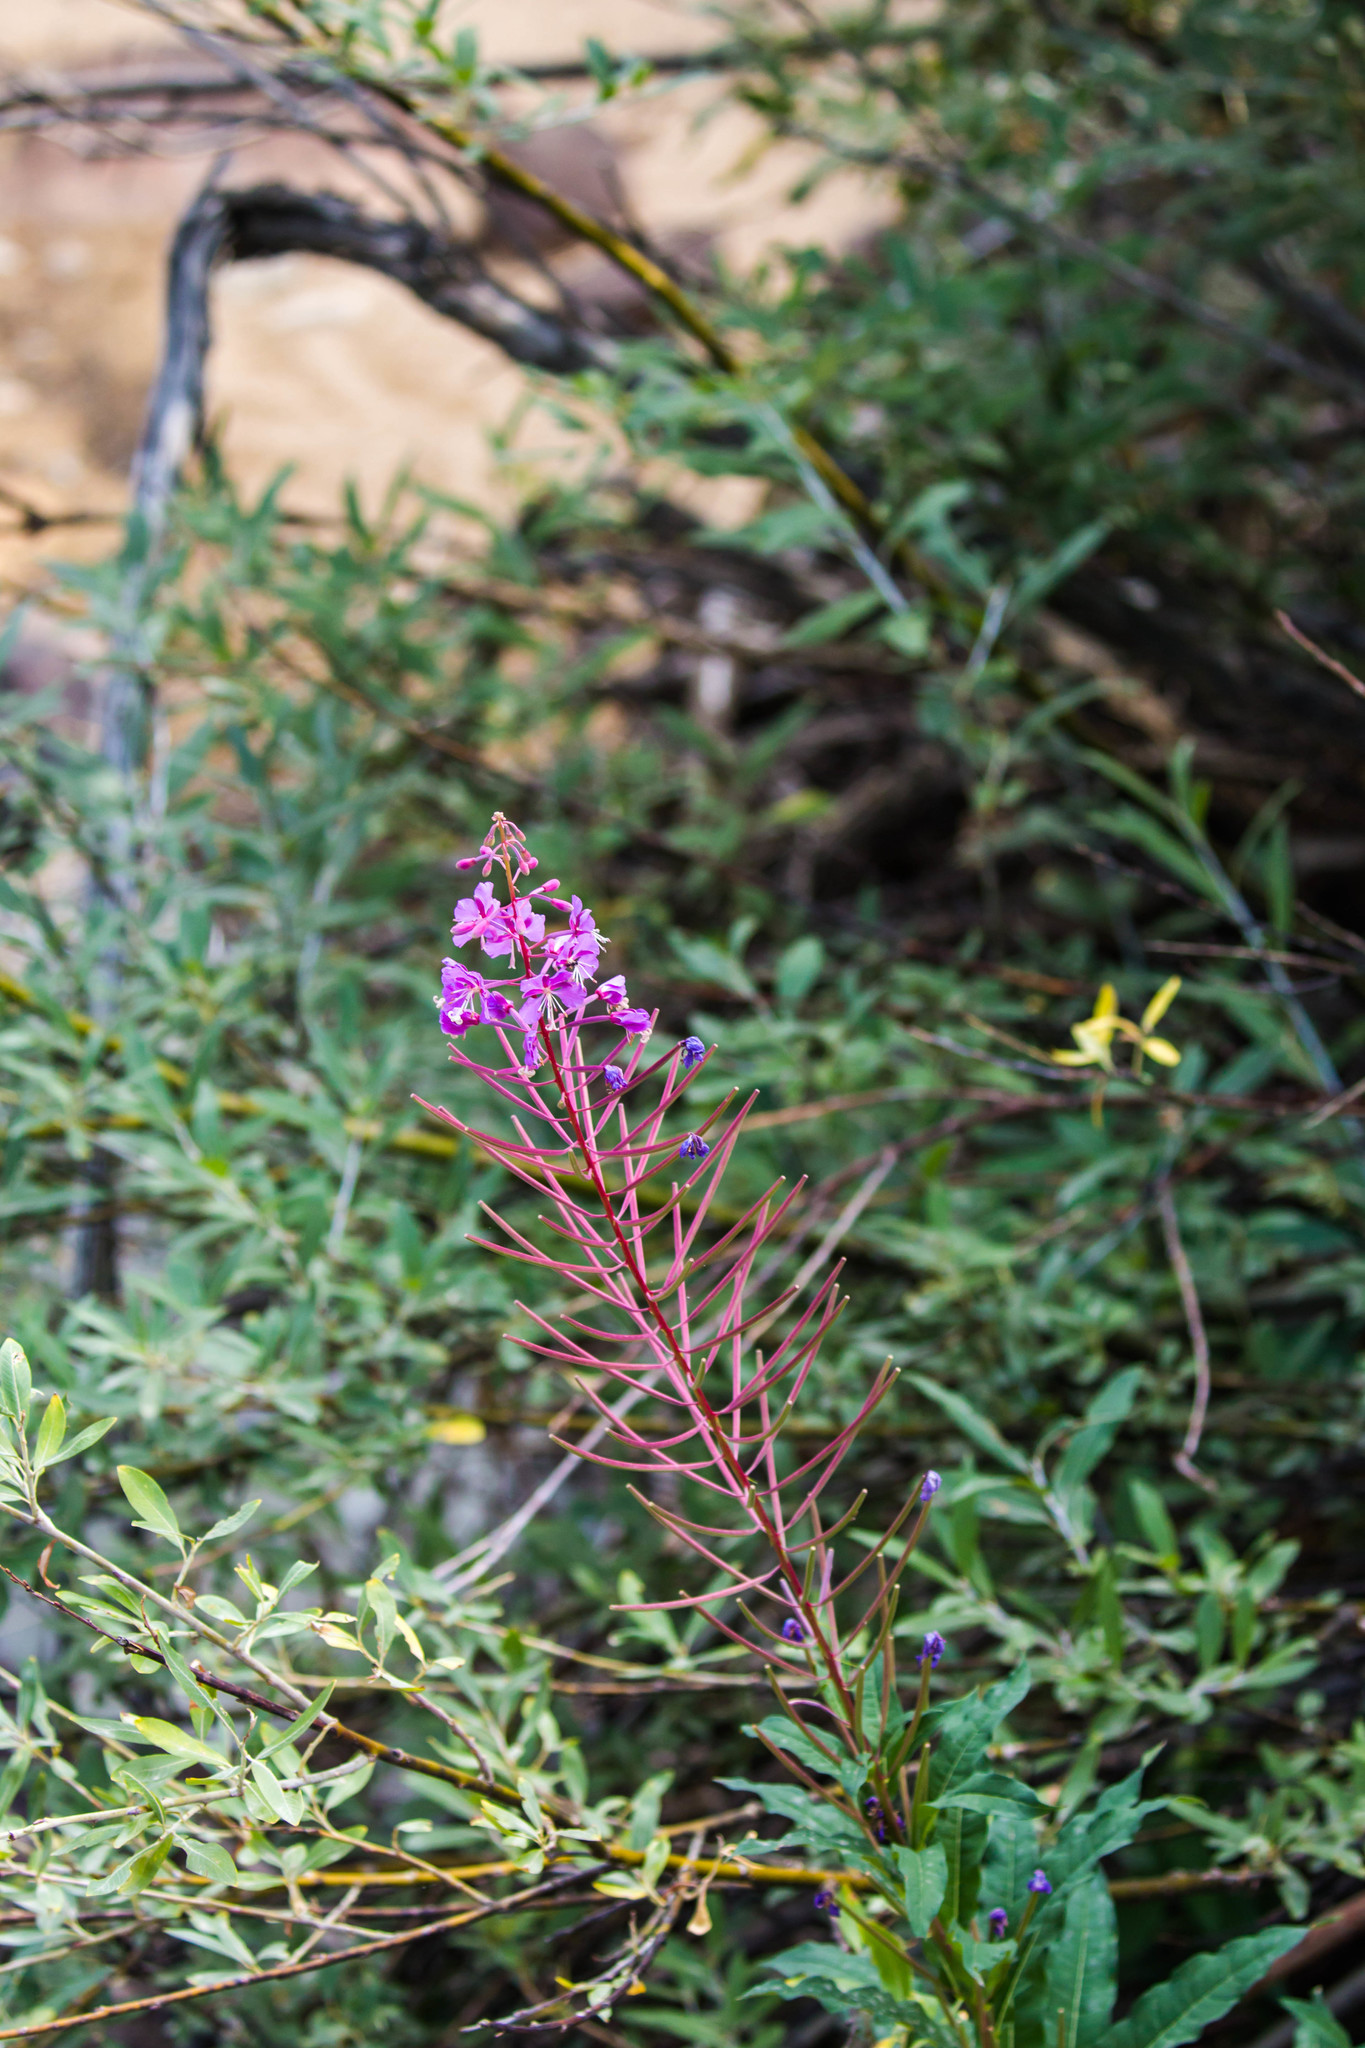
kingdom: Plantae
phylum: Tracheophyta
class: Magnoliopsida
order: Myrtales
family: Onagraceae
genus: Chamaenerion
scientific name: Chamaenerion angustifolium
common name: Fireweed
